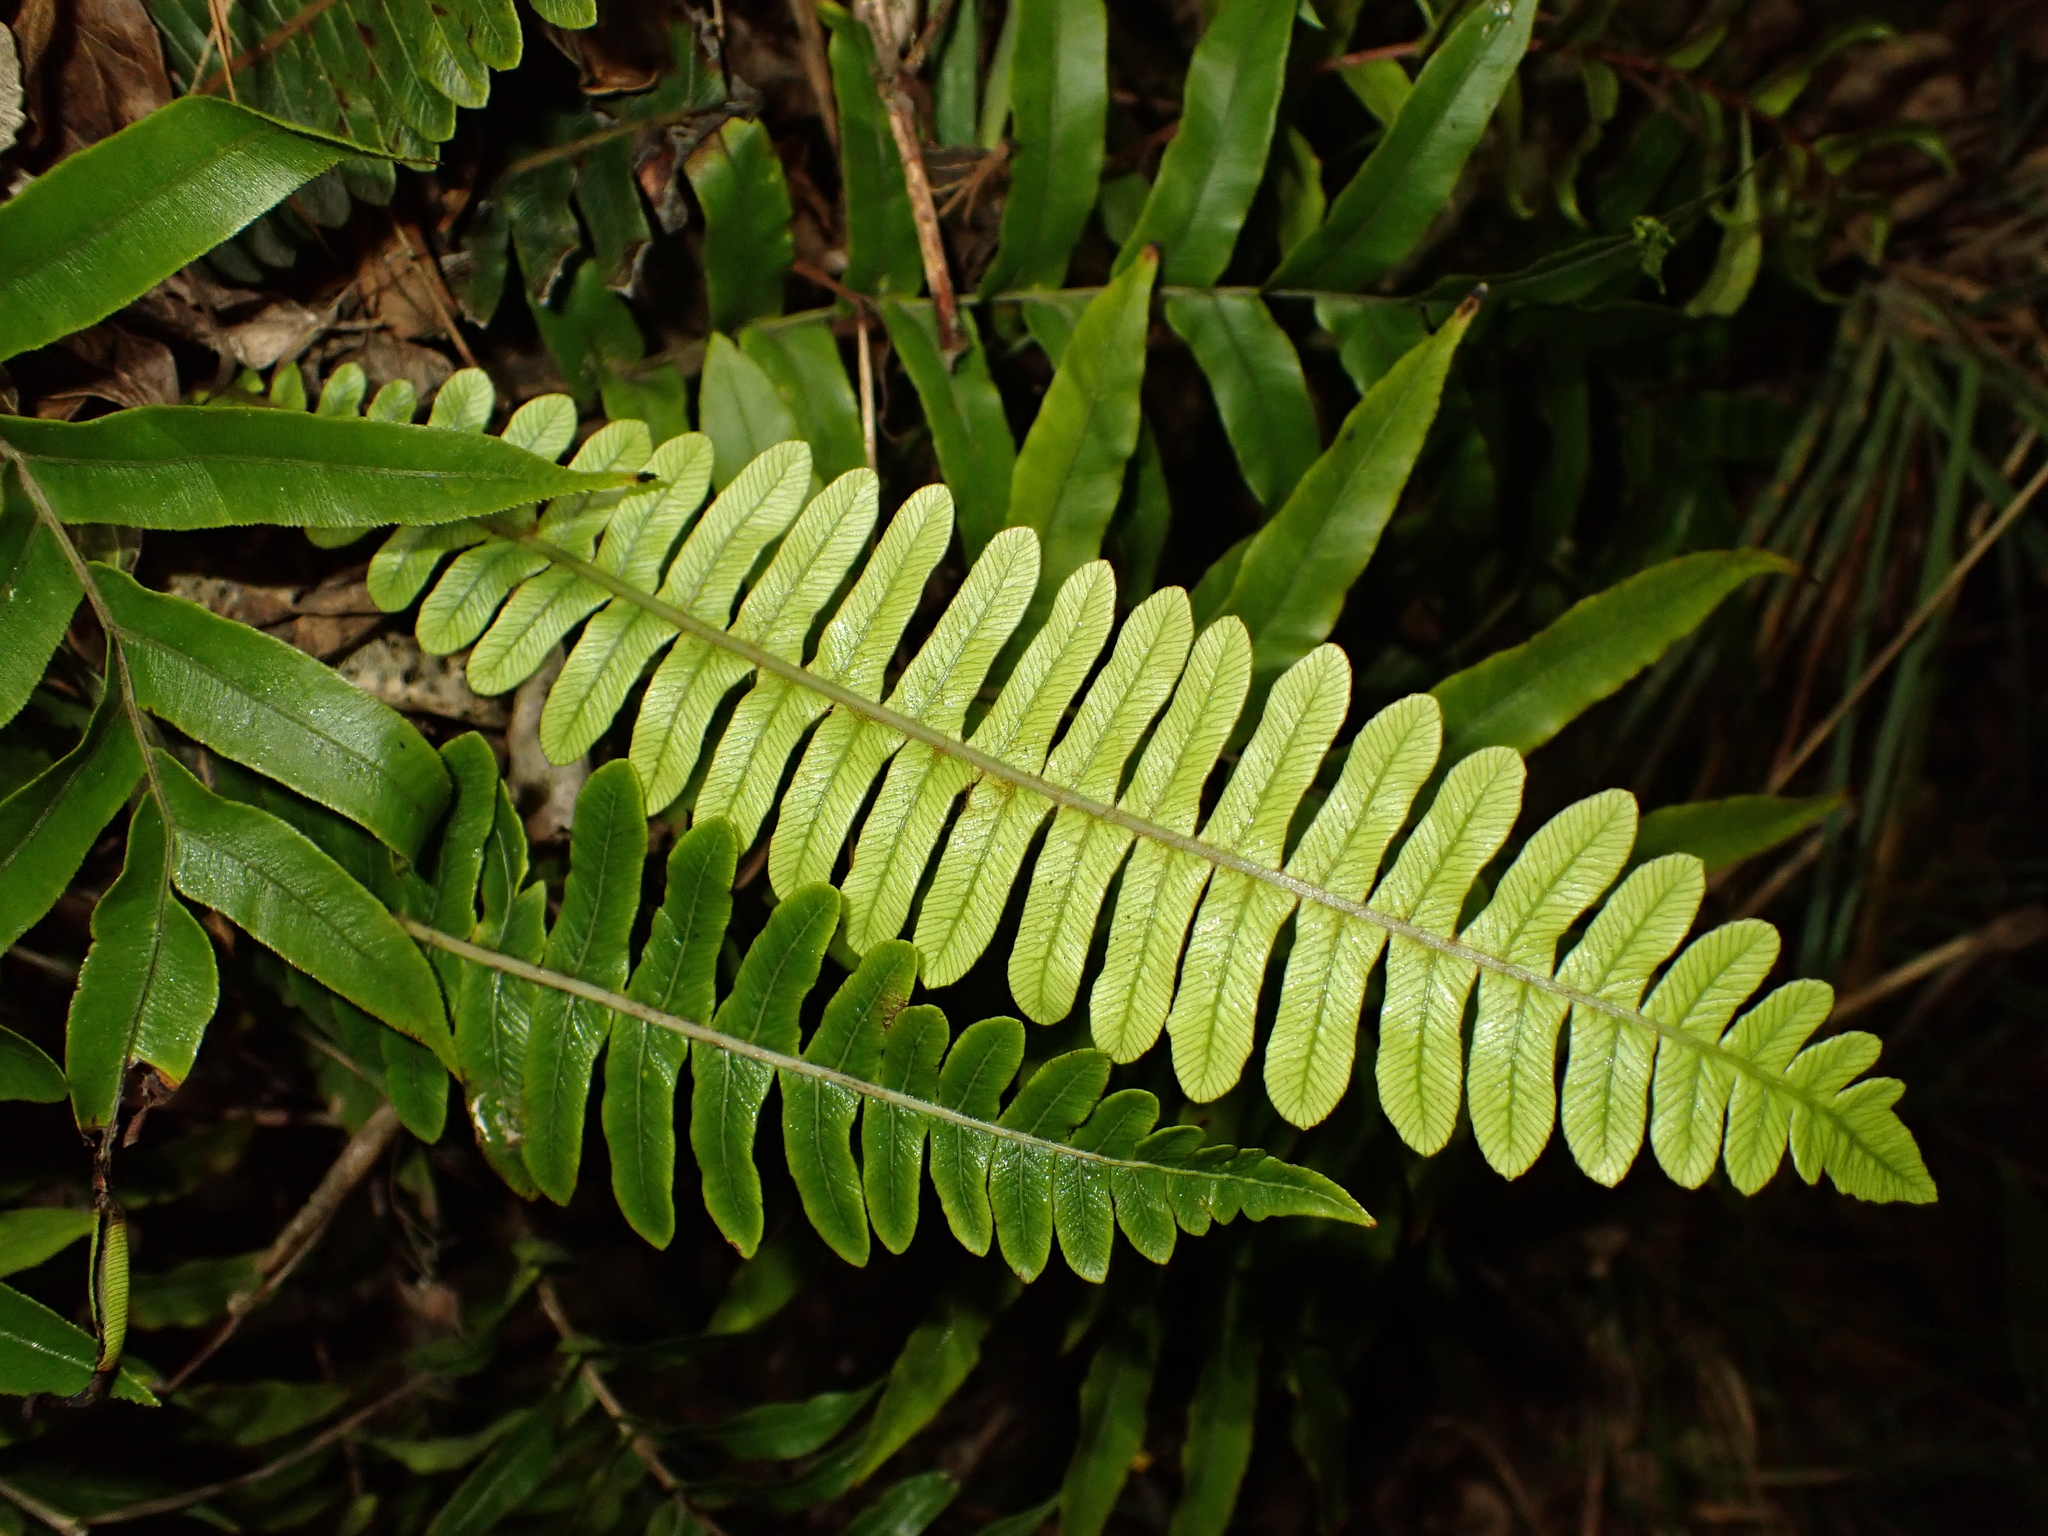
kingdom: Plantae
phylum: Tracheophyta
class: Polypodiopsida
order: Polypodiales
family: Blechnaceae
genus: Lomaria
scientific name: Lomaria discolor
